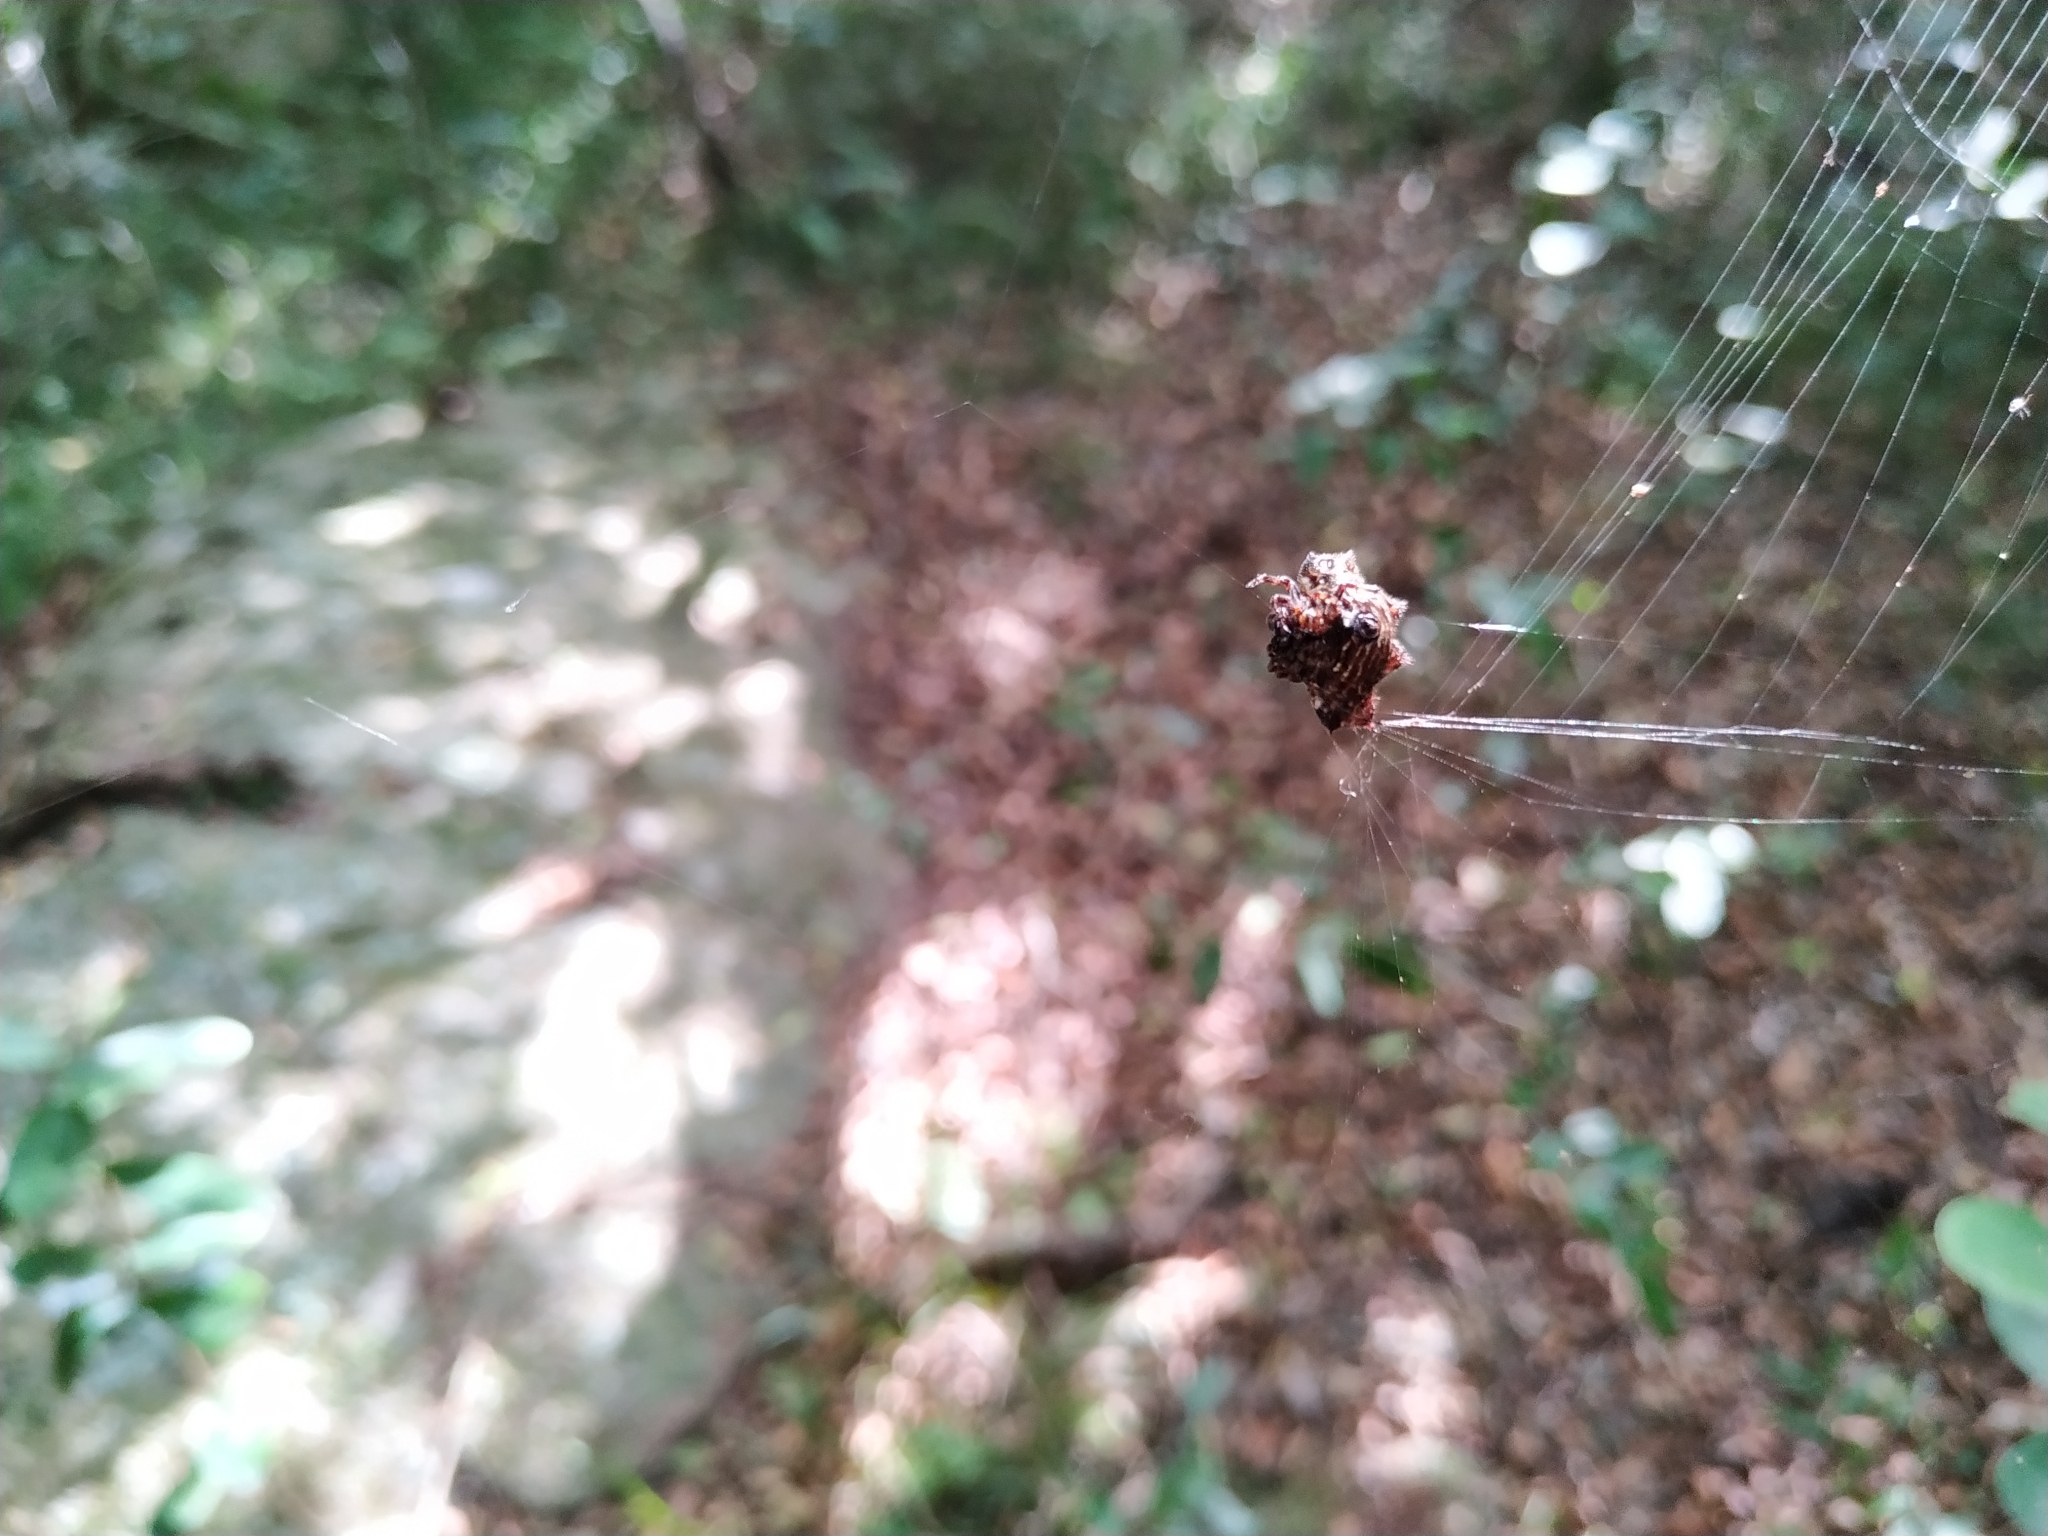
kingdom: Animalia
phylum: Arthropoda
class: Arachnida
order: Araneae
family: Araneidae
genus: Gasteracantha
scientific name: Gasteracantha cancriformis
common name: Orb weavers
